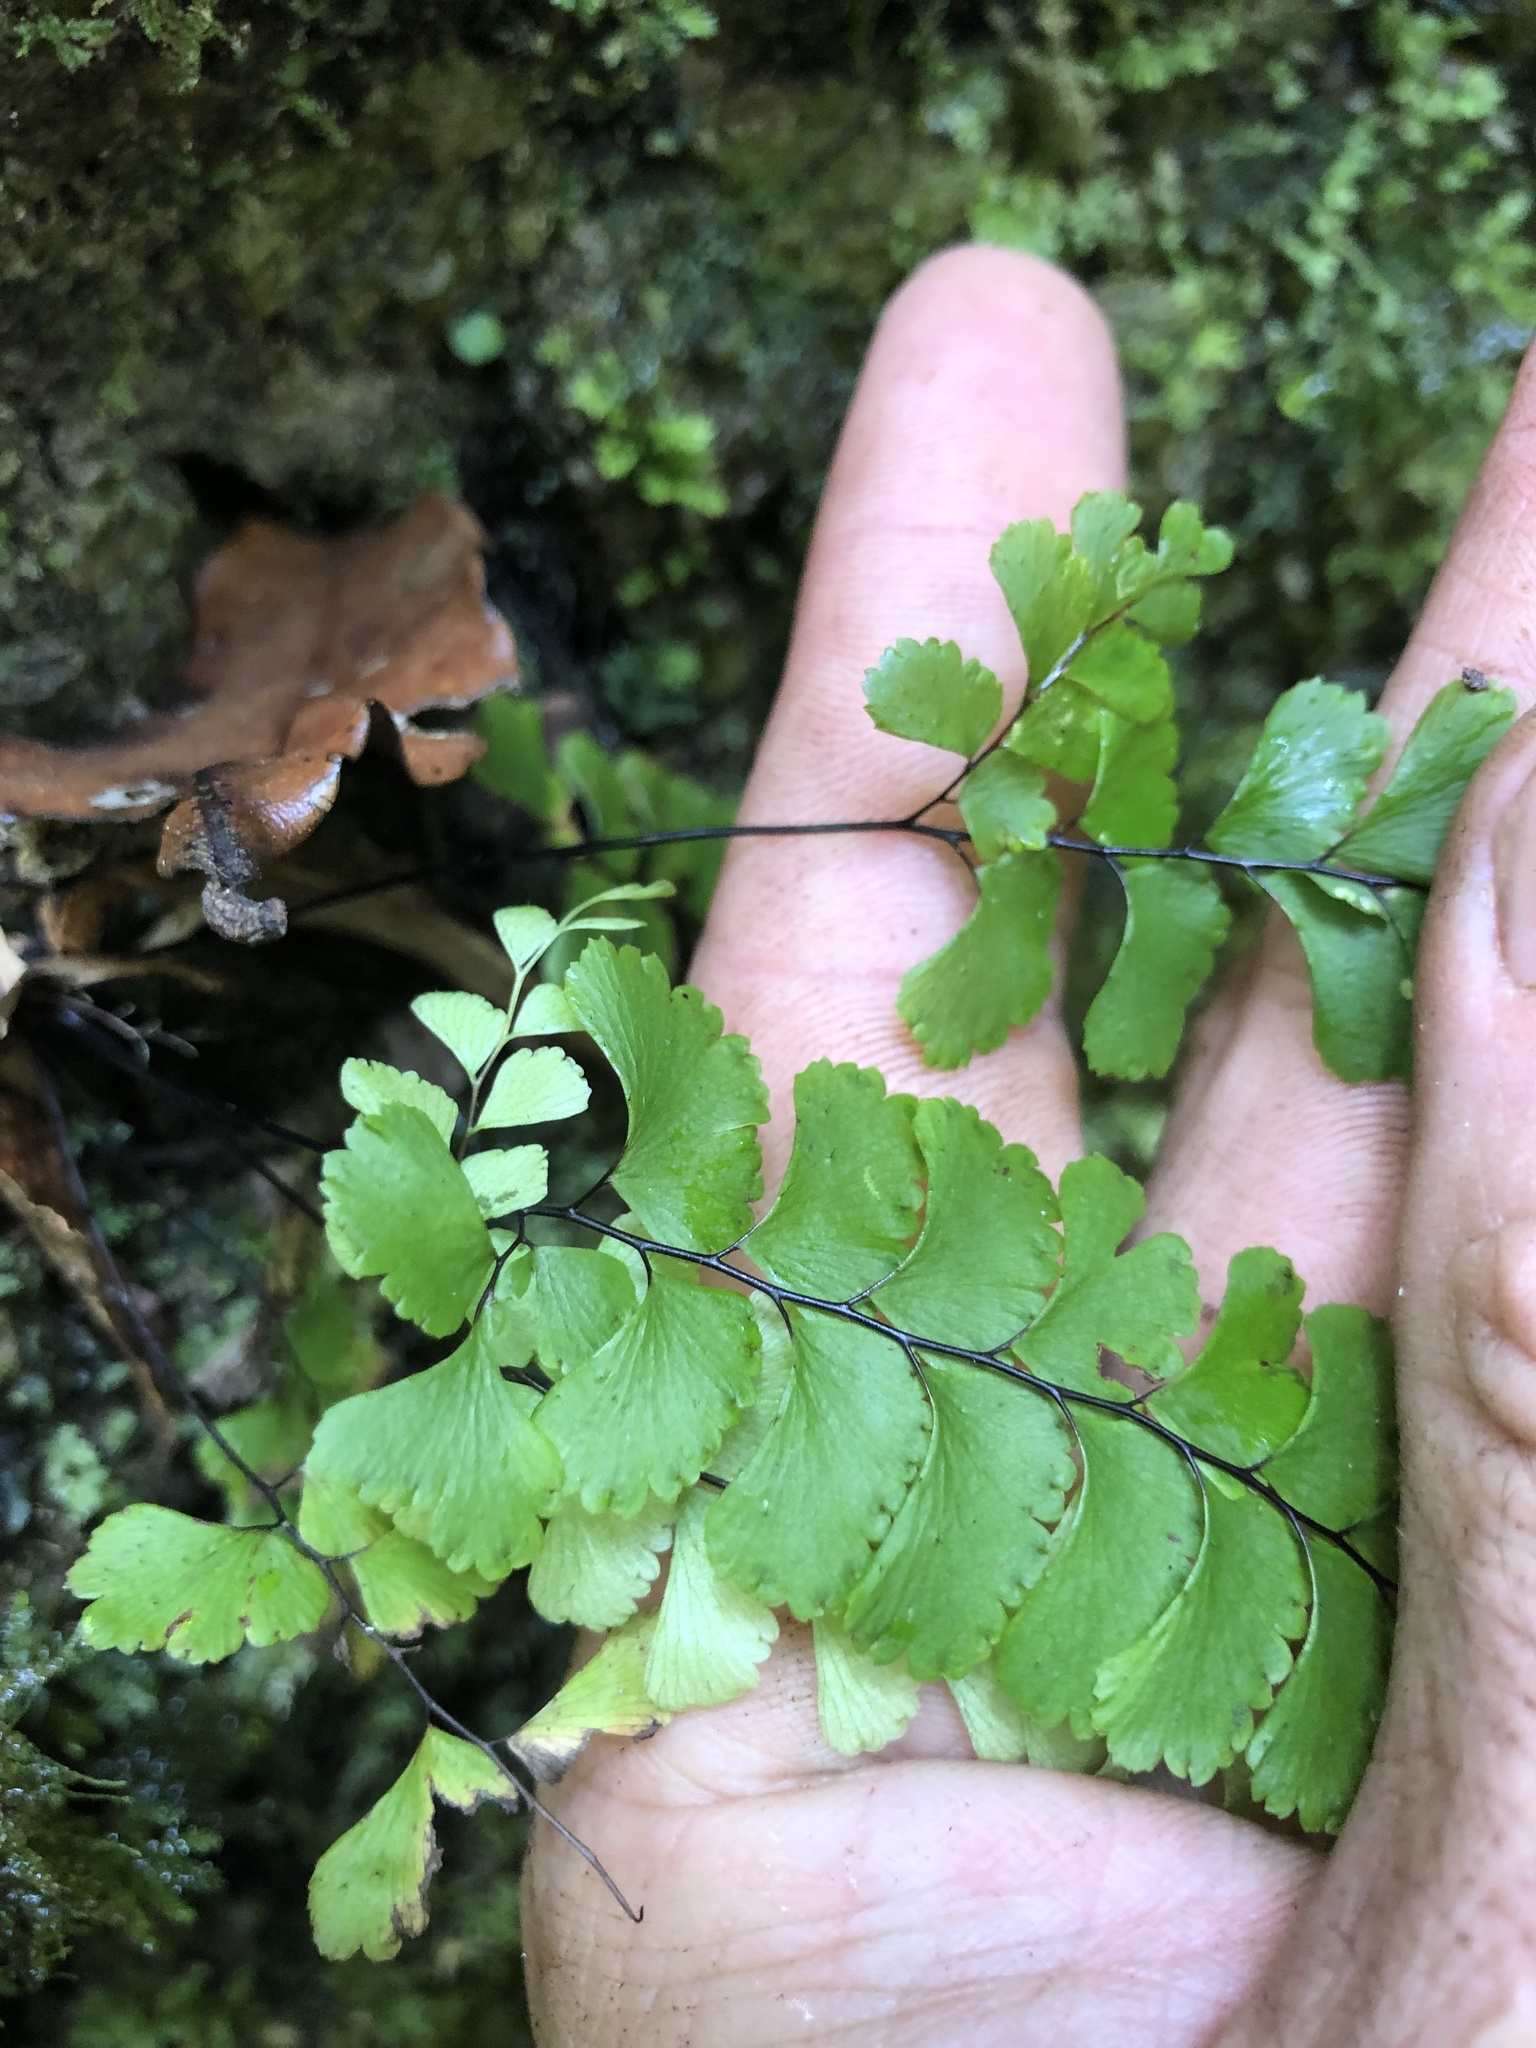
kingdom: Plantae
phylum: Tracheophyta
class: Polypodiopsida
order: Polypodiales
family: Pteridaceae
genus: Adiantum
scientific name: Adiantum diaphanum
